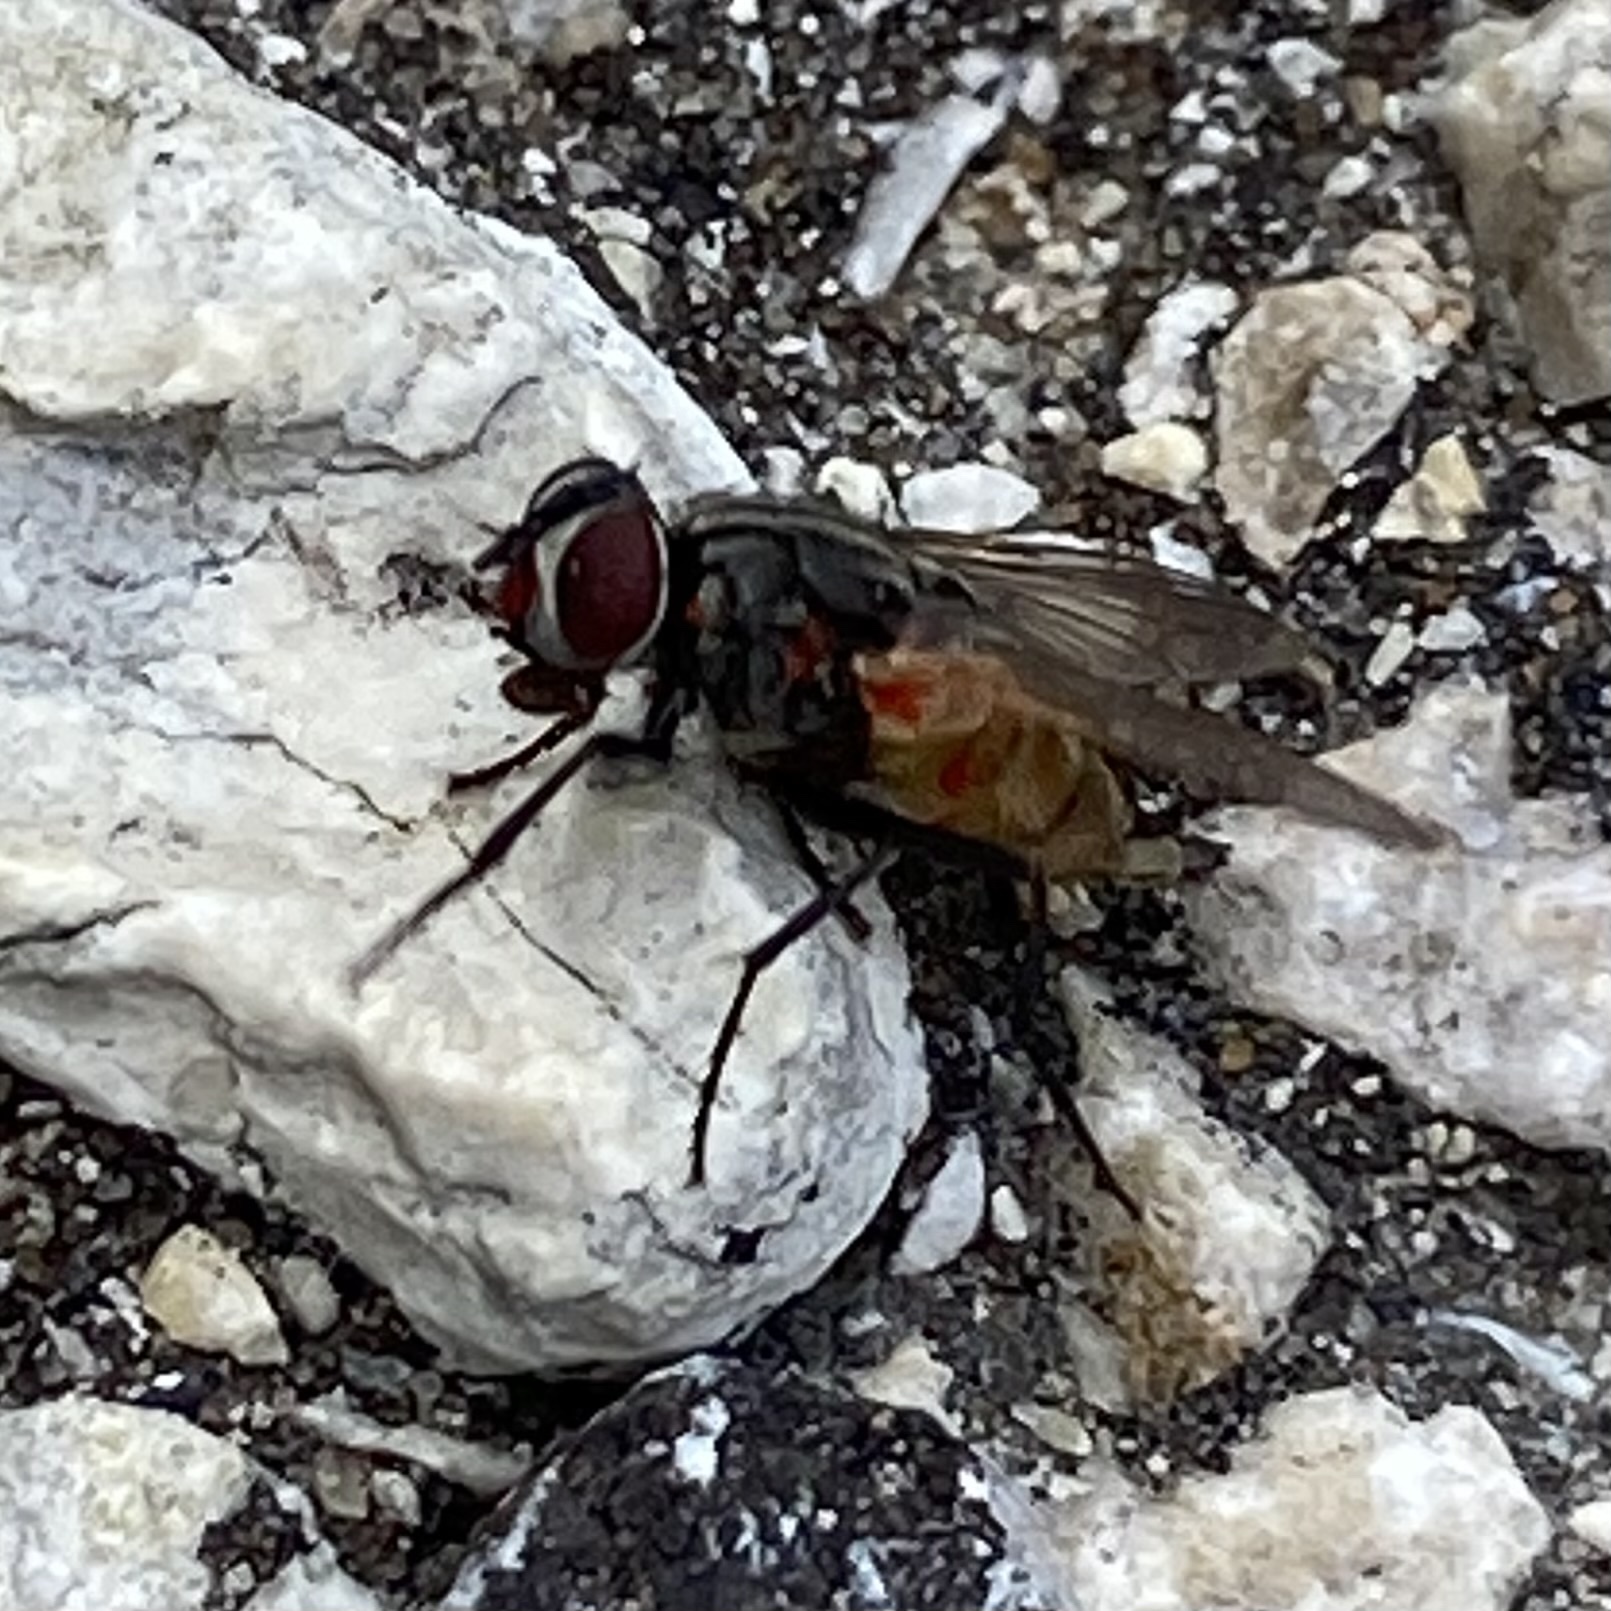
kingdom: Animalia
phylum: Arthropoda
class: Insecta
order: Diptera
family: Muscidae
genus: Musca
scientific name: Musca domestica
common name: House fly
